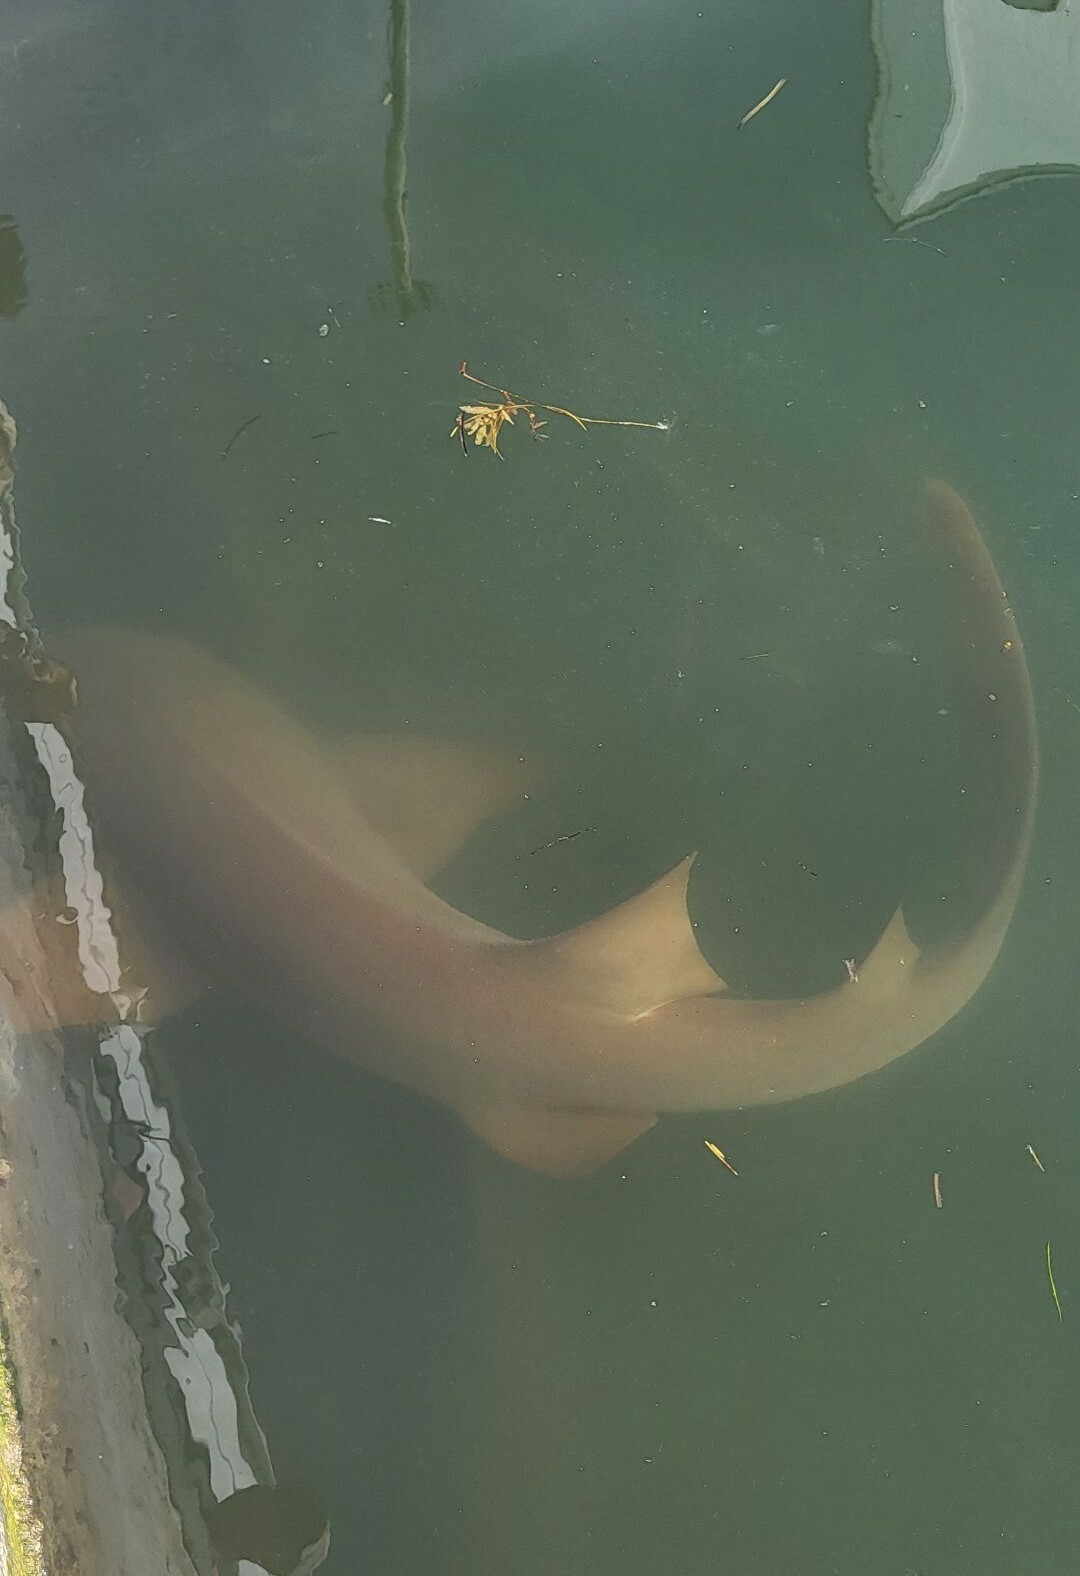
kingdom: Animalia
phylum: Chordata
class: Elasmobranchii
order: Orectolobiformes
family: Ginglymostomatidae
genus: Ginglymostoma
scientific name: Ginglymostoma cirratum
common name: Nurse shark
